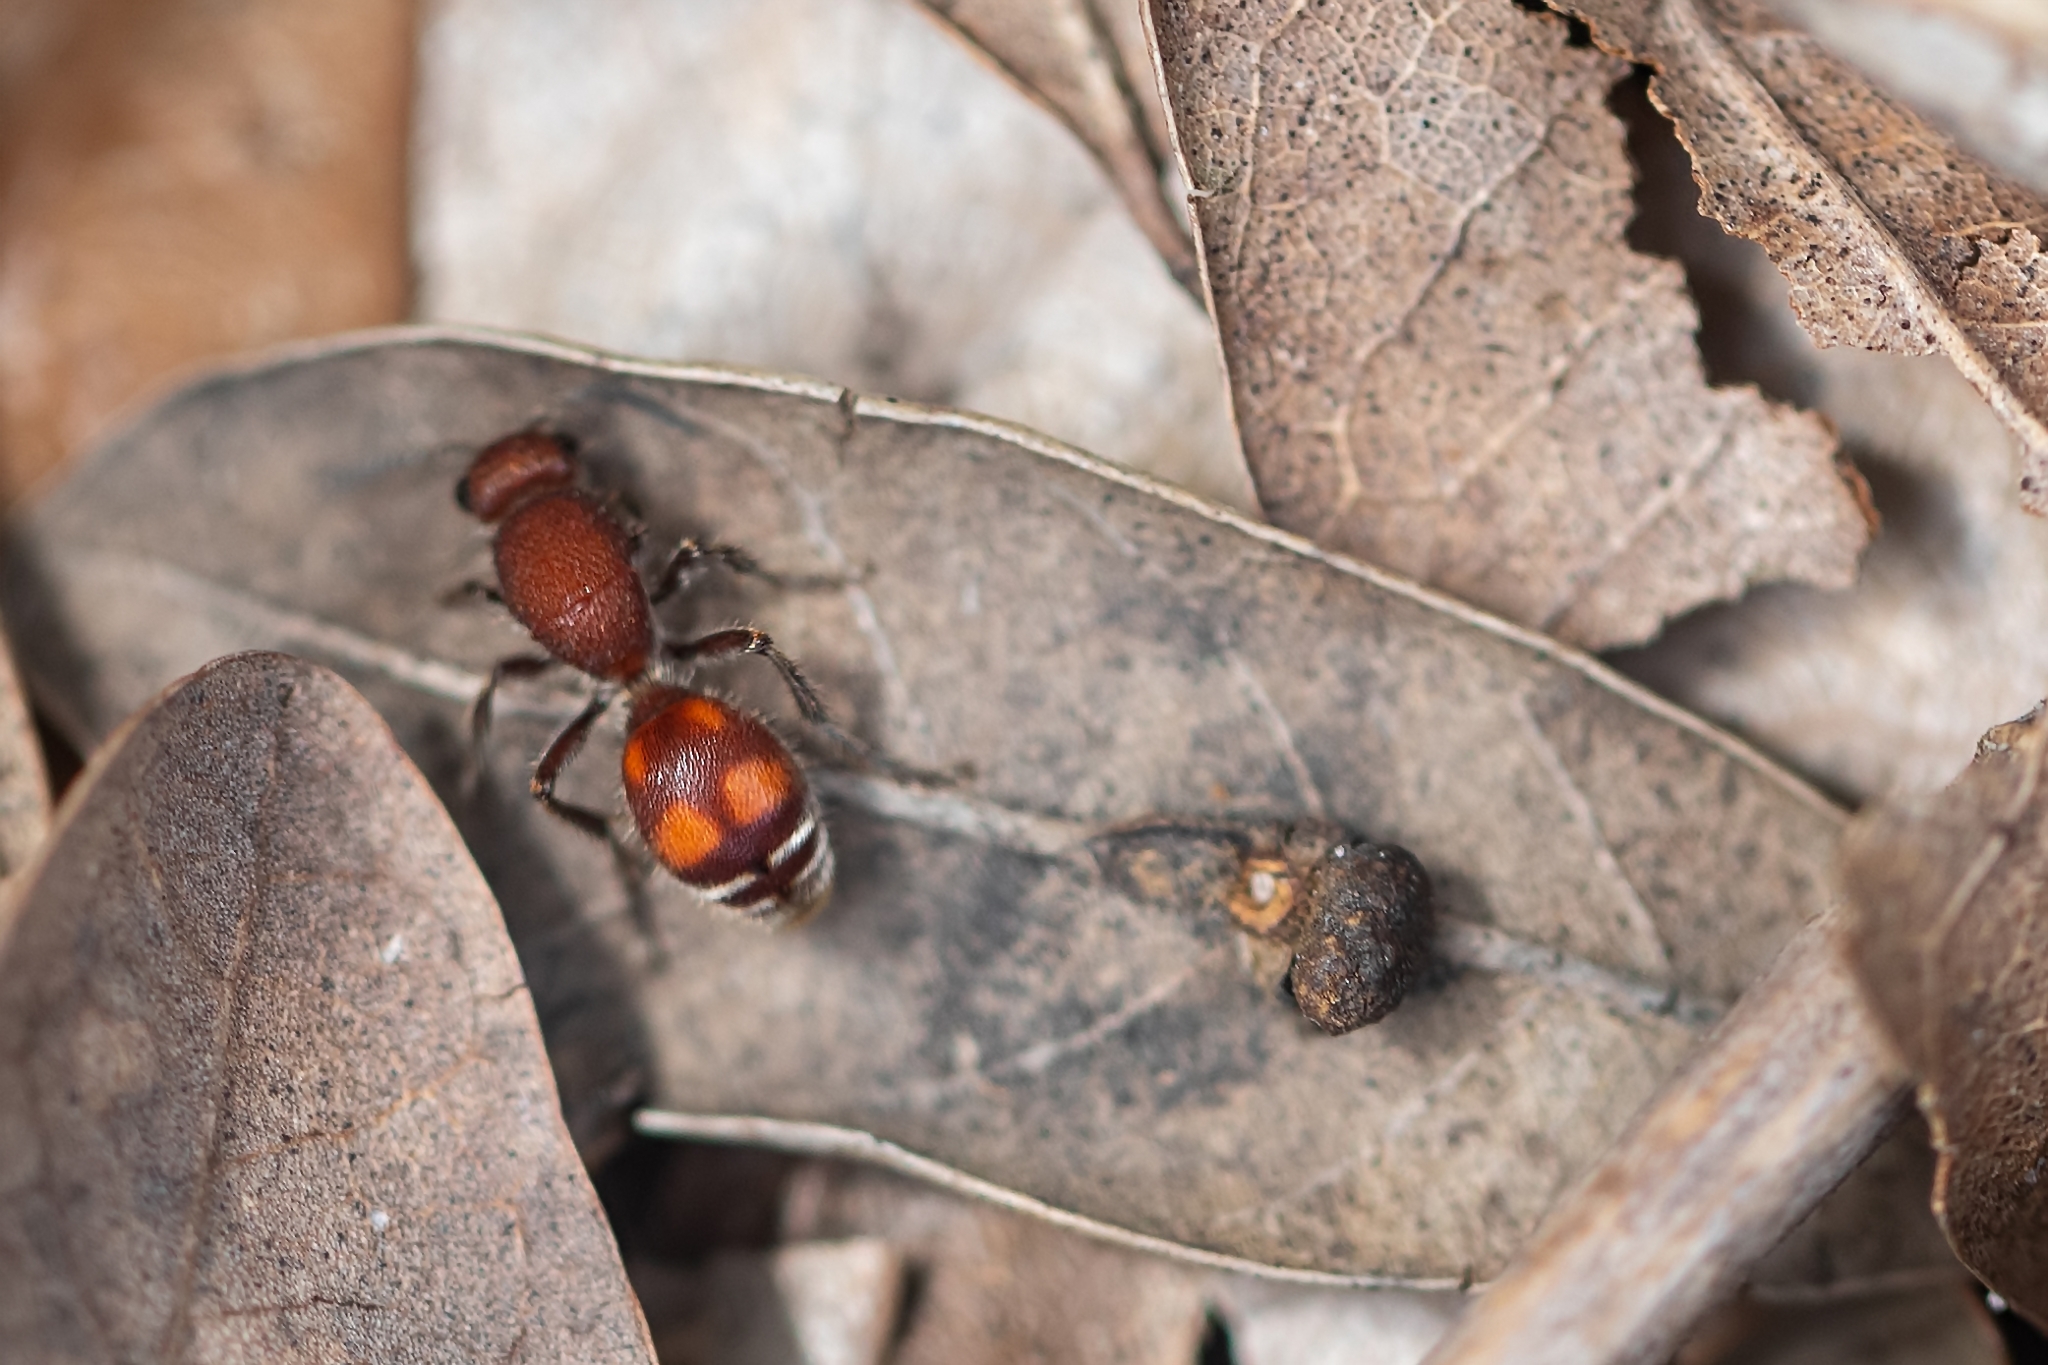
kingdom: Animalia
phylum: Arthropoda
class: Insecta
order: Hymenoptera
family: Mutillidae
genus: Dasymutilla
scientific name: Dasymutilla
